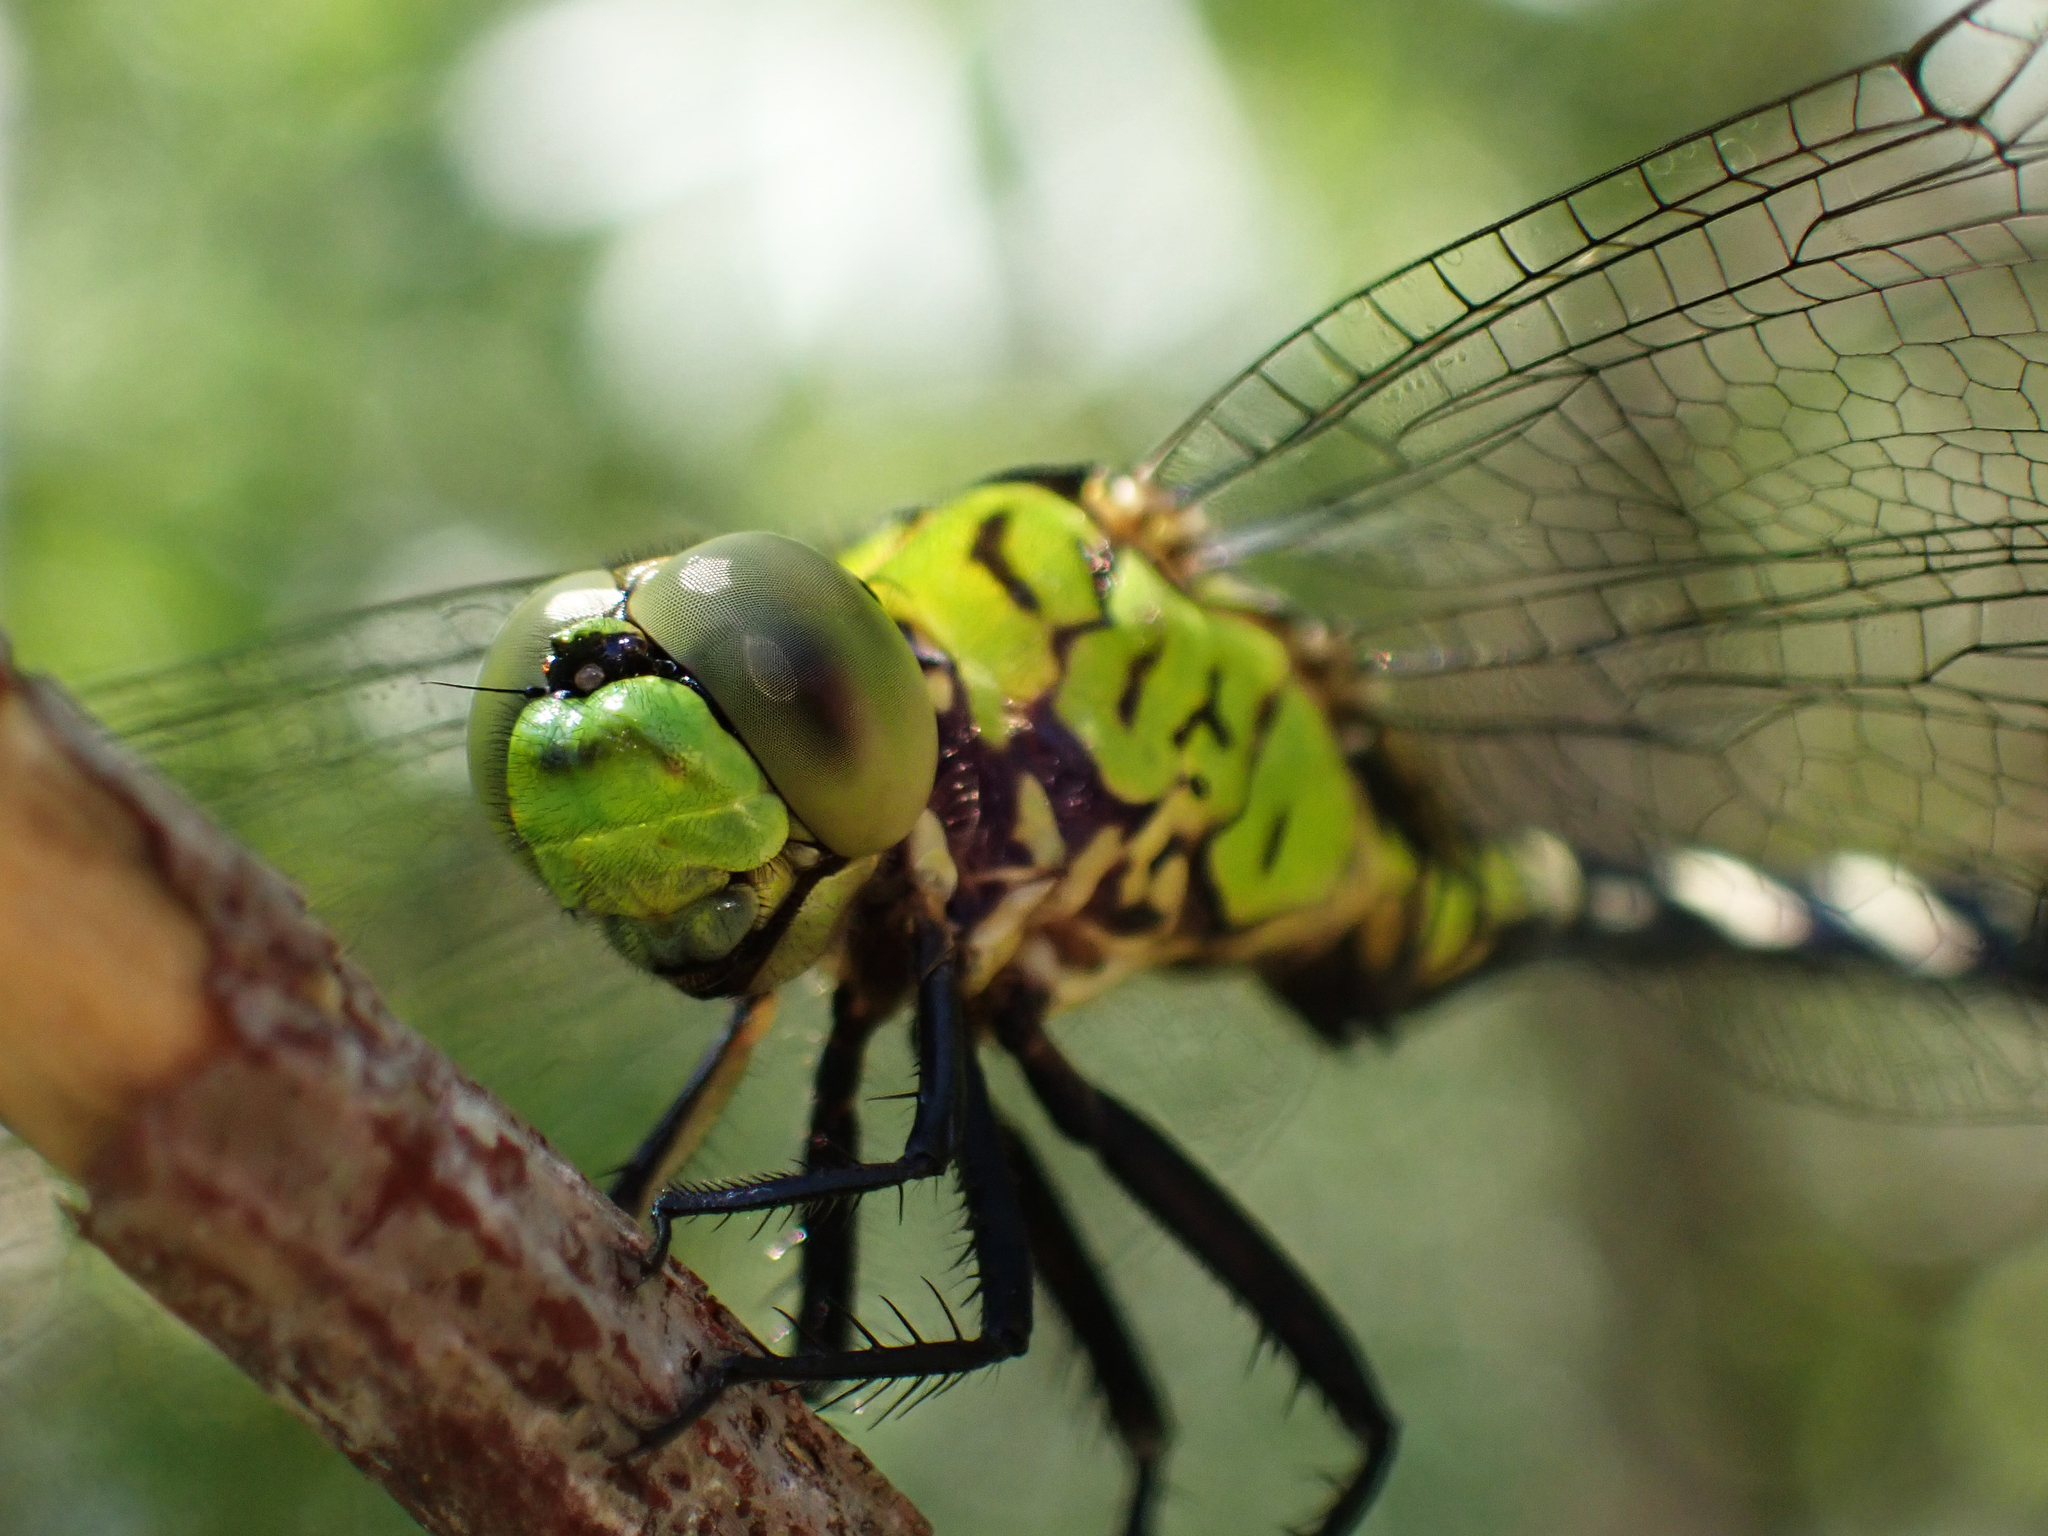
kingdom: Animalia
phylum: Arthropoda
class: Insecta
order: Odonata
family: Libellulidae
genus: Erythemis
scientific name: Erythemis simplicicollis
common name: Eastern pondhawk
